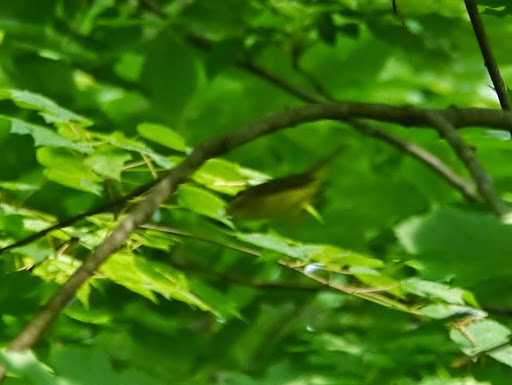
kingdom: Animalia
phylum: Chordata
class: Aves
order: Passeriformes
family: Parulidae
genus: Cardellina
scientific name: Cardellina pusilla
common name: Wilson's warbler
